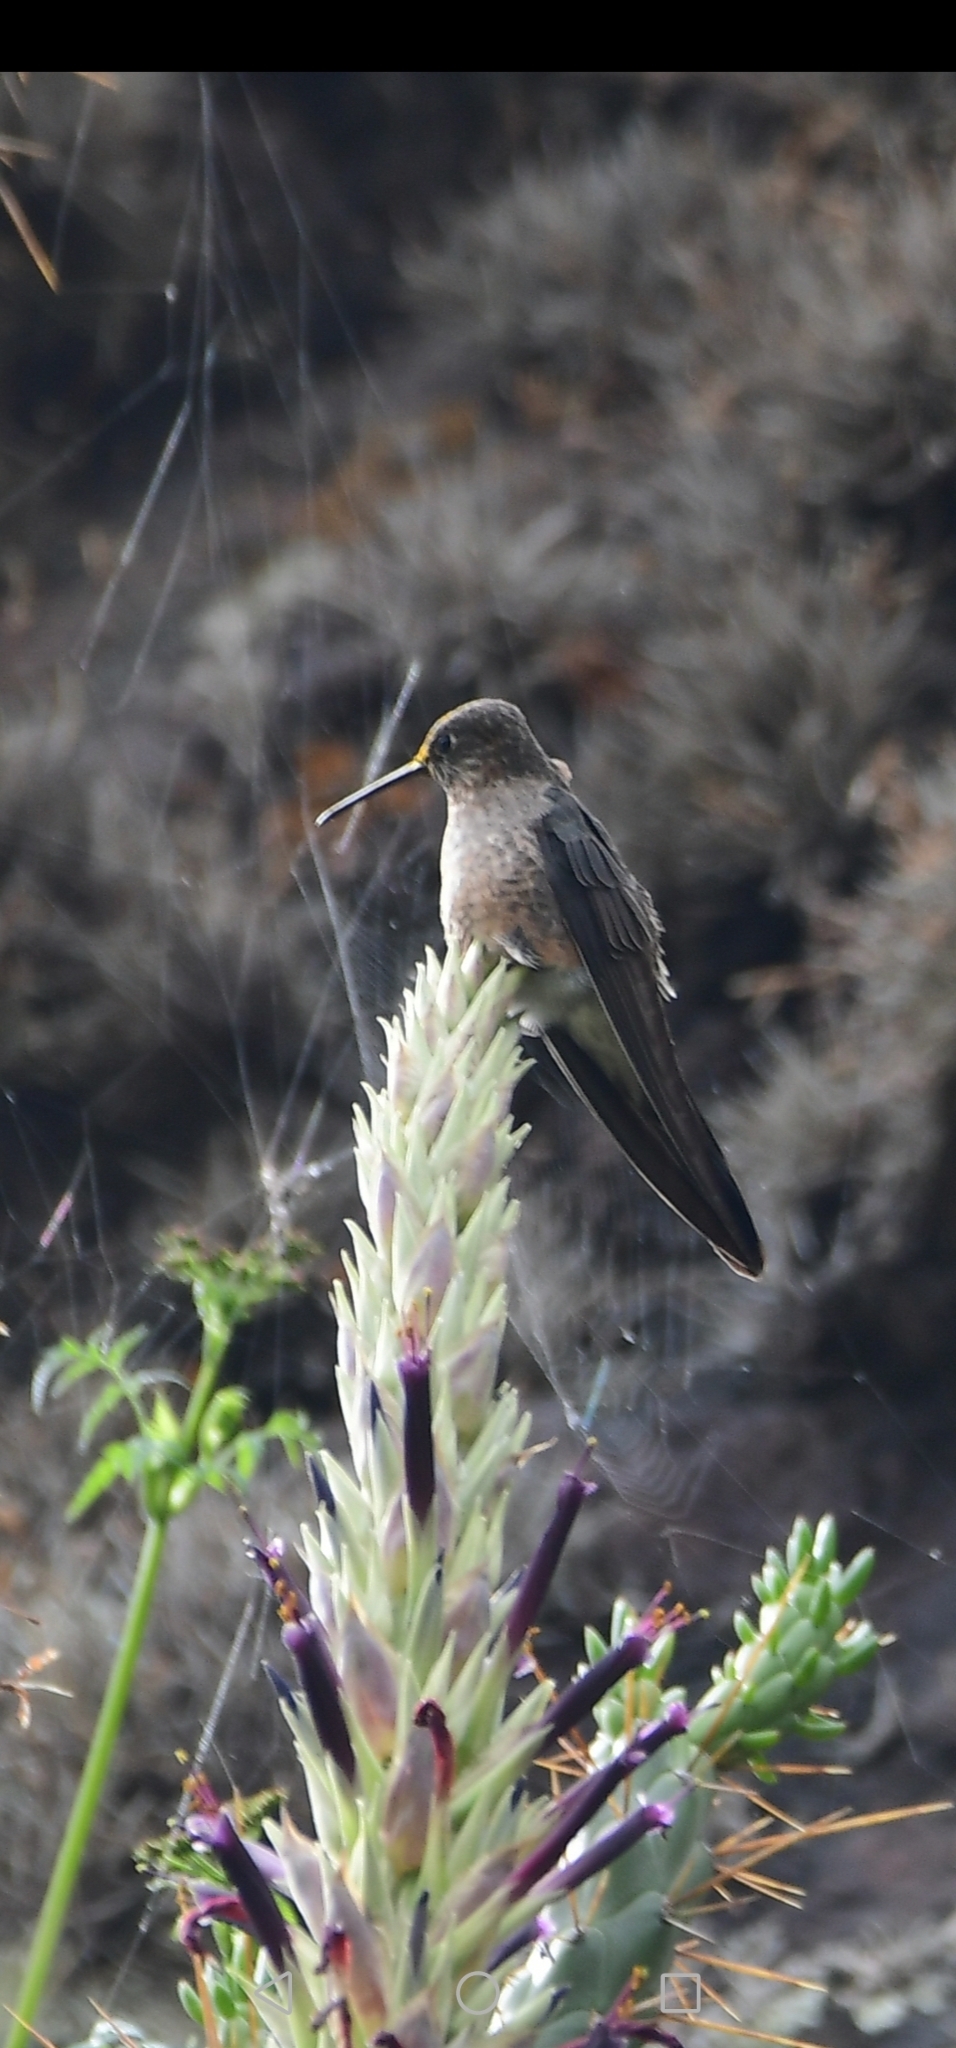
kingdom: Animalia
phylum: Chordata
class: Aves
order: Apodiformes
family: Trochilidae
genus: Patagona
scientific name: Patagona gigas
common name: Giant hummingbird
